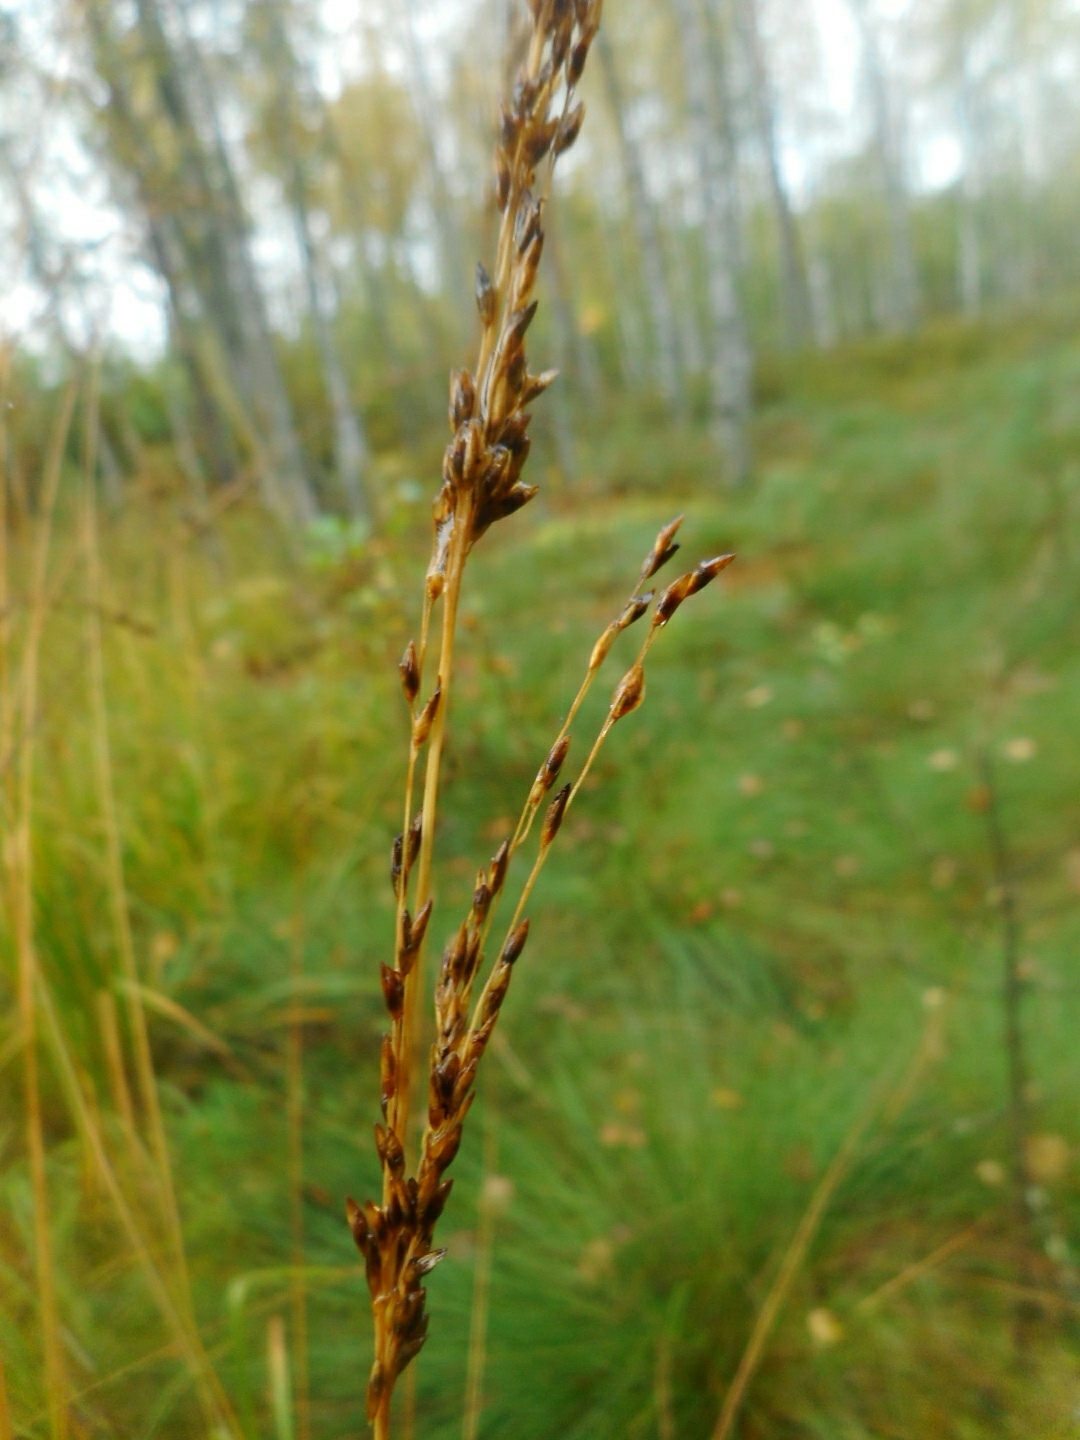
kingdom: Plantae
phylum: Tracheophyta
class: Liliopsida
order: Poales
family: Poaceae
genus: Molinia
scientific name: Molinia caerulea
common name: Purple moor-grass
